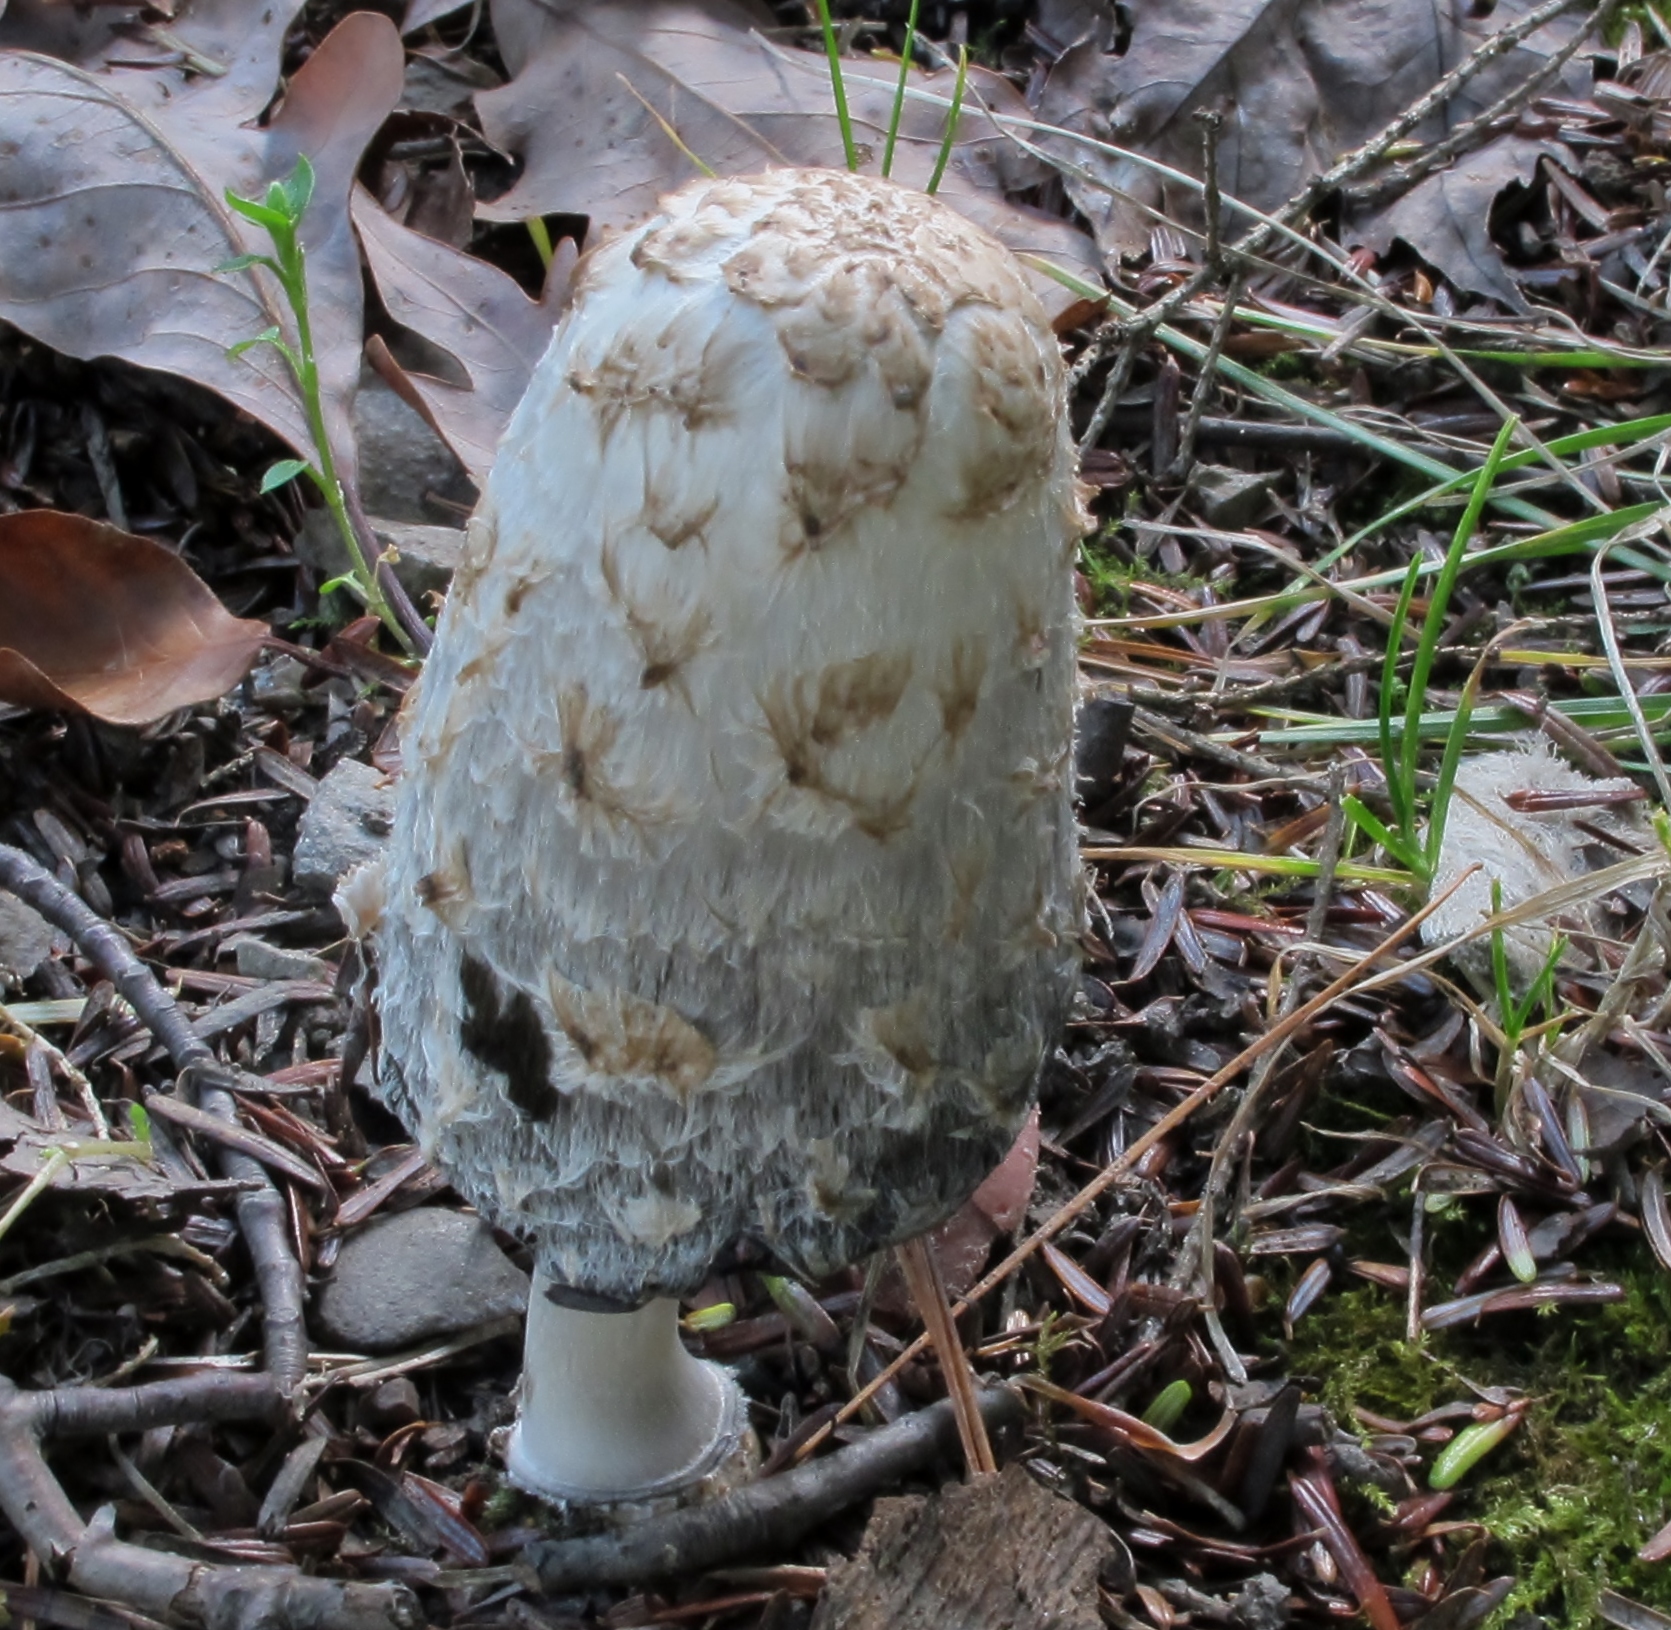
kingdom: Fungi
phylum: Basidiomycota
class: Agaricomycetes
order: Agaricales
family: Agaricaceae
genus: Coprinus
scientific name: Coprinus comatus
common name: Lawyer's wig
